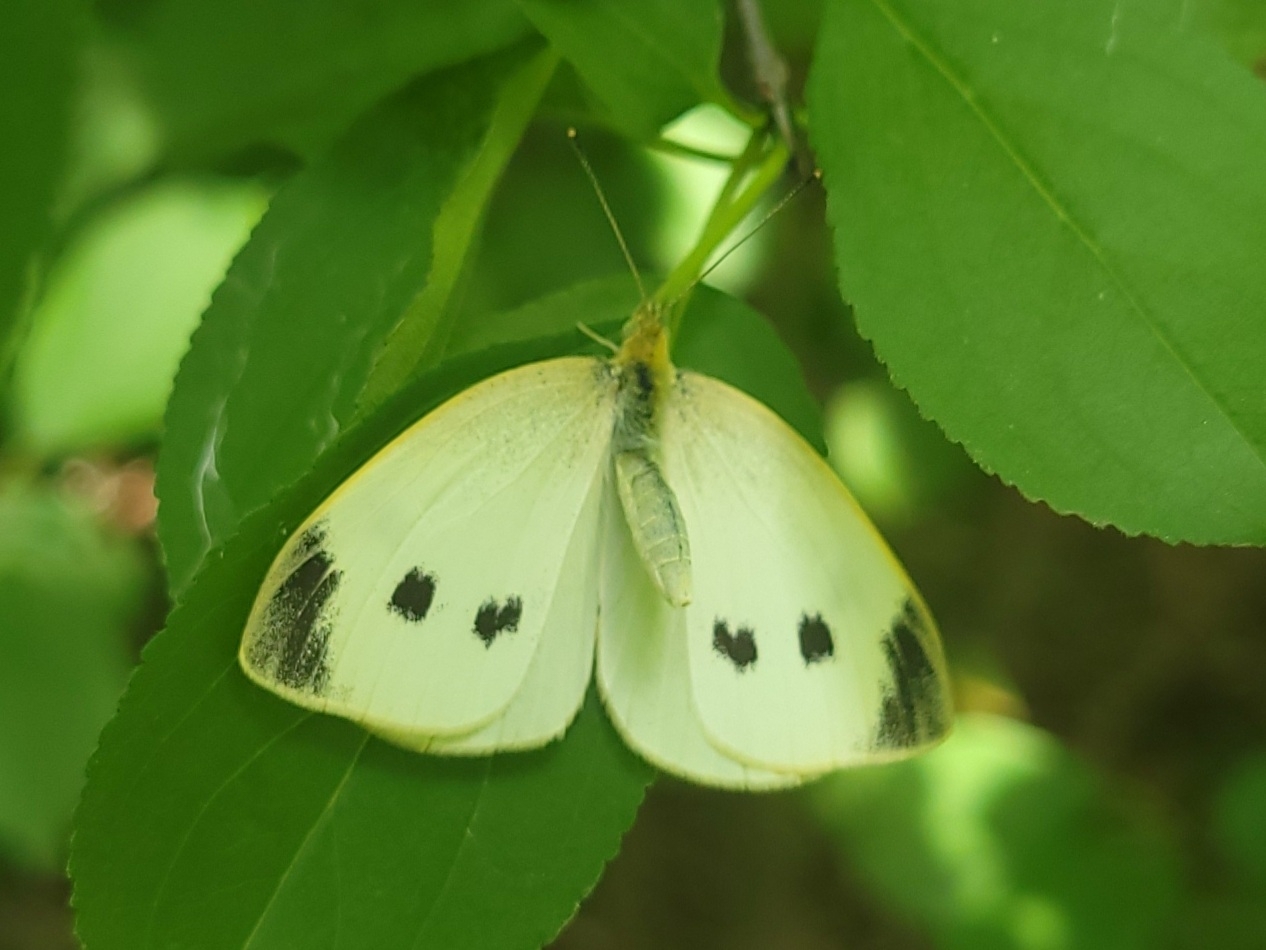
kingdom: Animalia
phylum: Arthropoda
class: Insecta
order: Lepidoptera
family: Pieridae
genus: Pieris
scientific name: Pieris rapae
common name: Small white
